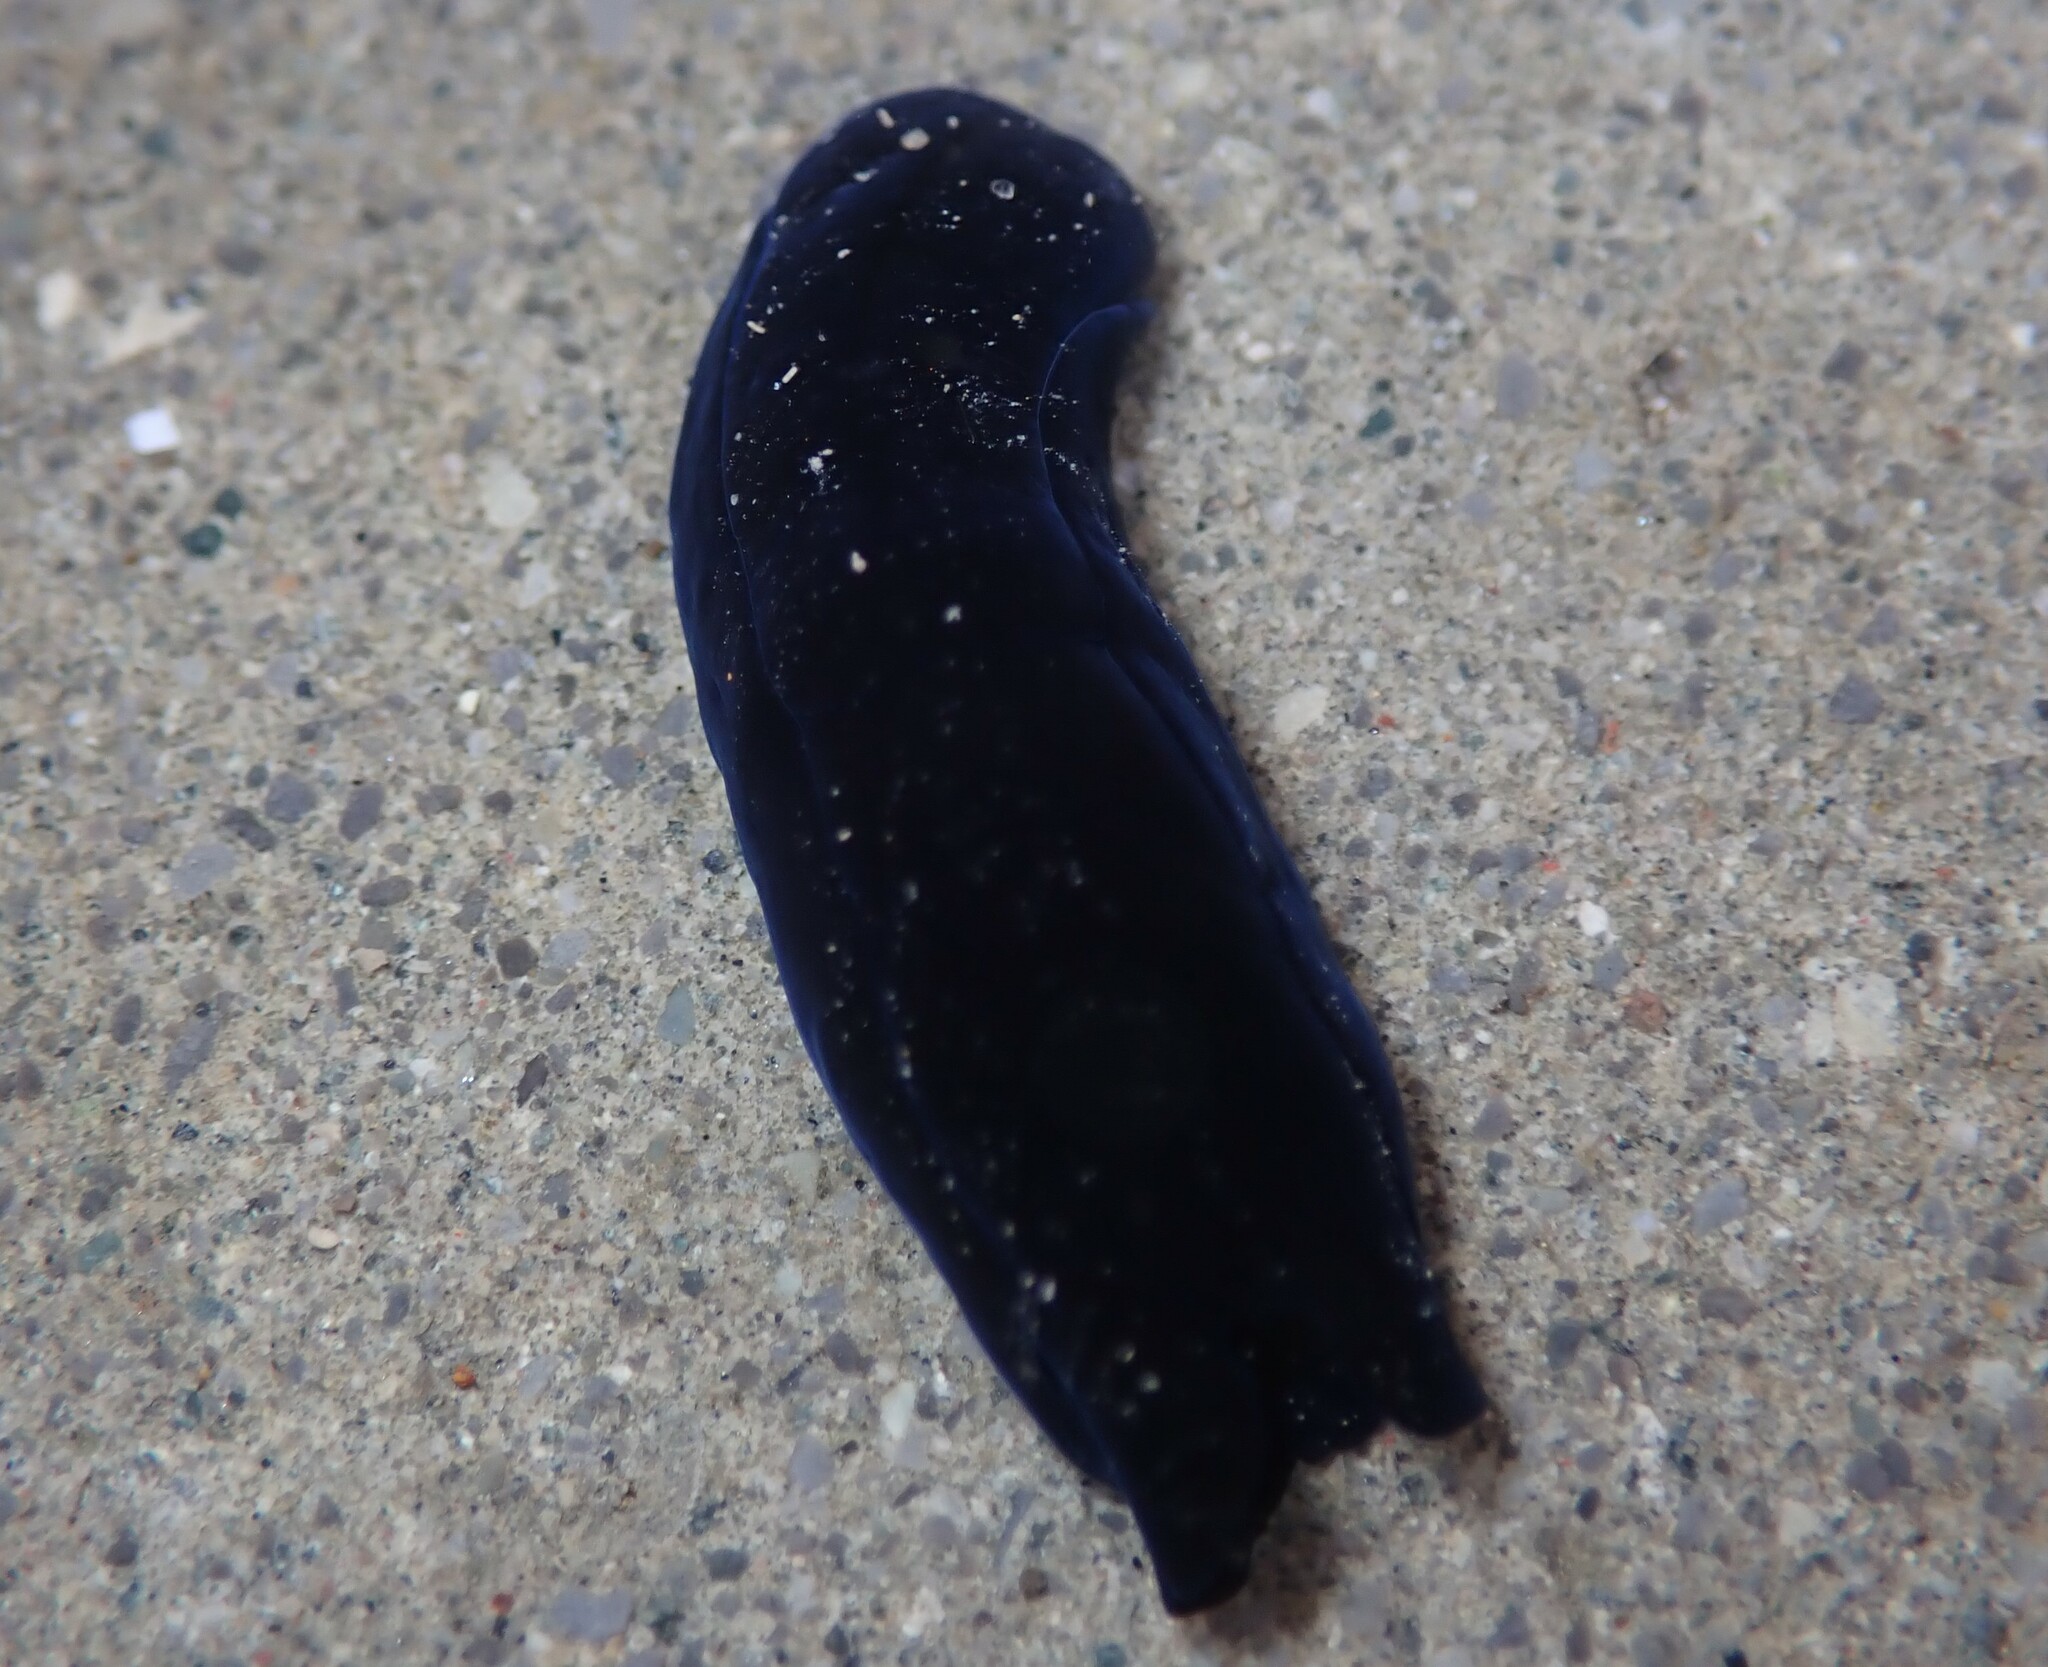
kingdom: Animalia
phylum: Mollusca
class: Gastropoda
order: Cephalaspidea
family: Aglajidae
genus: Melanochlamys
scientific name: Melanochlamys cylindrica
